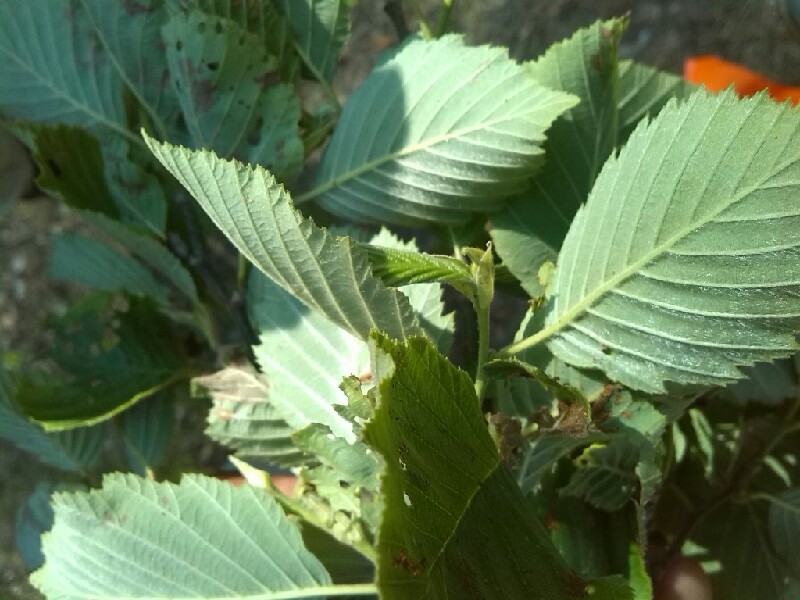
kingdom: Plantae
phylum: Tracheophyta
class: Magnoliopsida
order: Fagales
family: Betulaceae
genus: Alnus
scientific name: Alnus incana
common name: Grey alder
